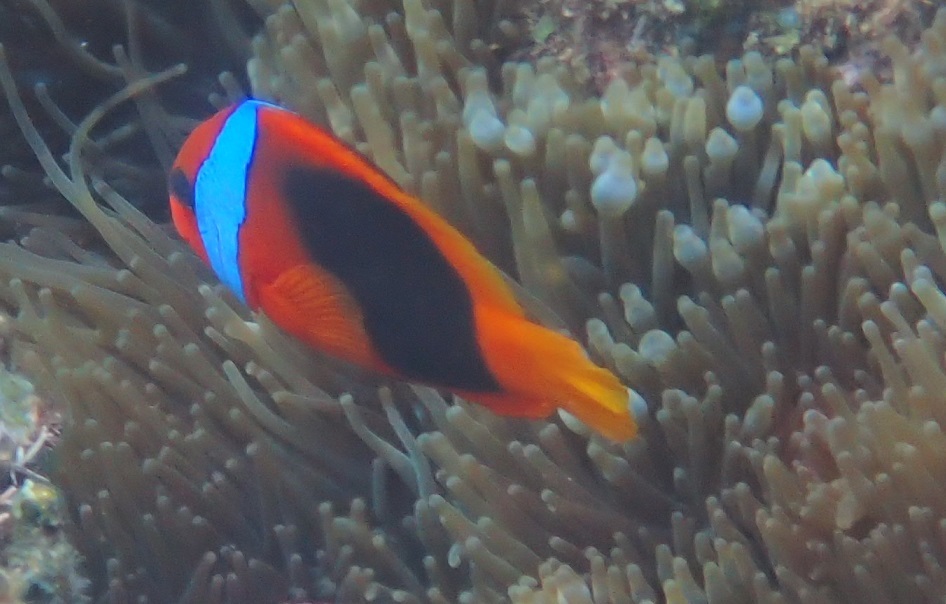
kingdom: Animalia
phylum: Chordata
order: Perciformes
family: Pomacentridae
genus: Amphiprion
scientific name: Amphiprion melanopus
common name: Black anemonefish
